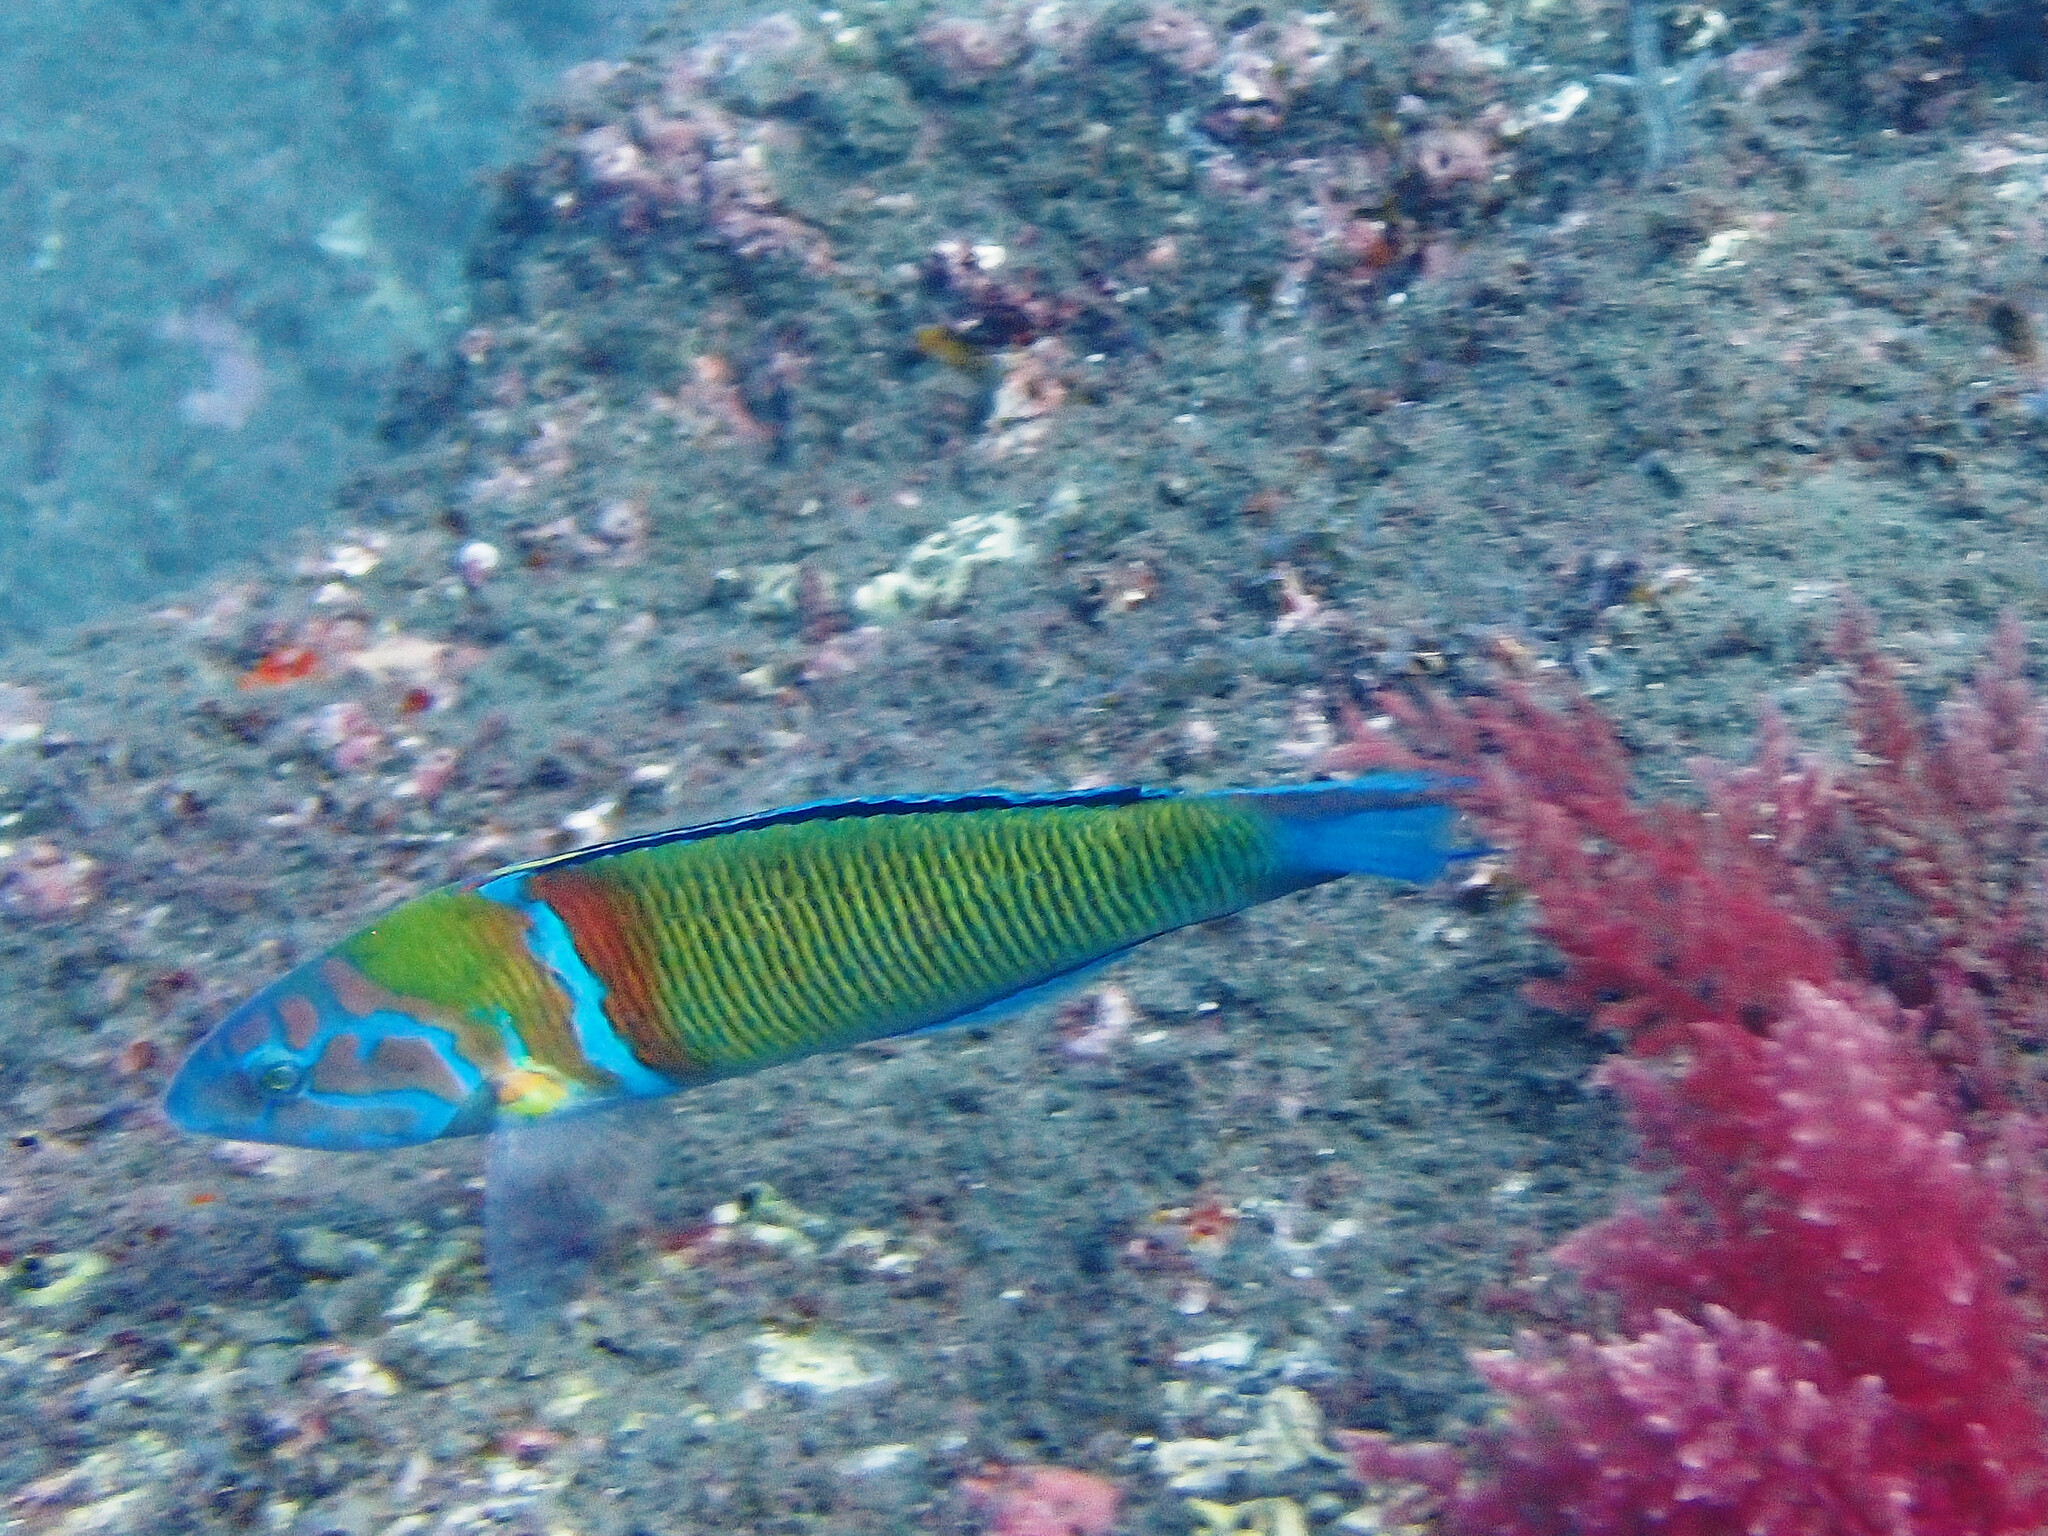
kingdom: Animalia
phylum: Chordata
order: Perciformes
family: Labridae
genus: Thalassoma
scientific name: Thalassoma pavo
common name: Ornate wrasse
